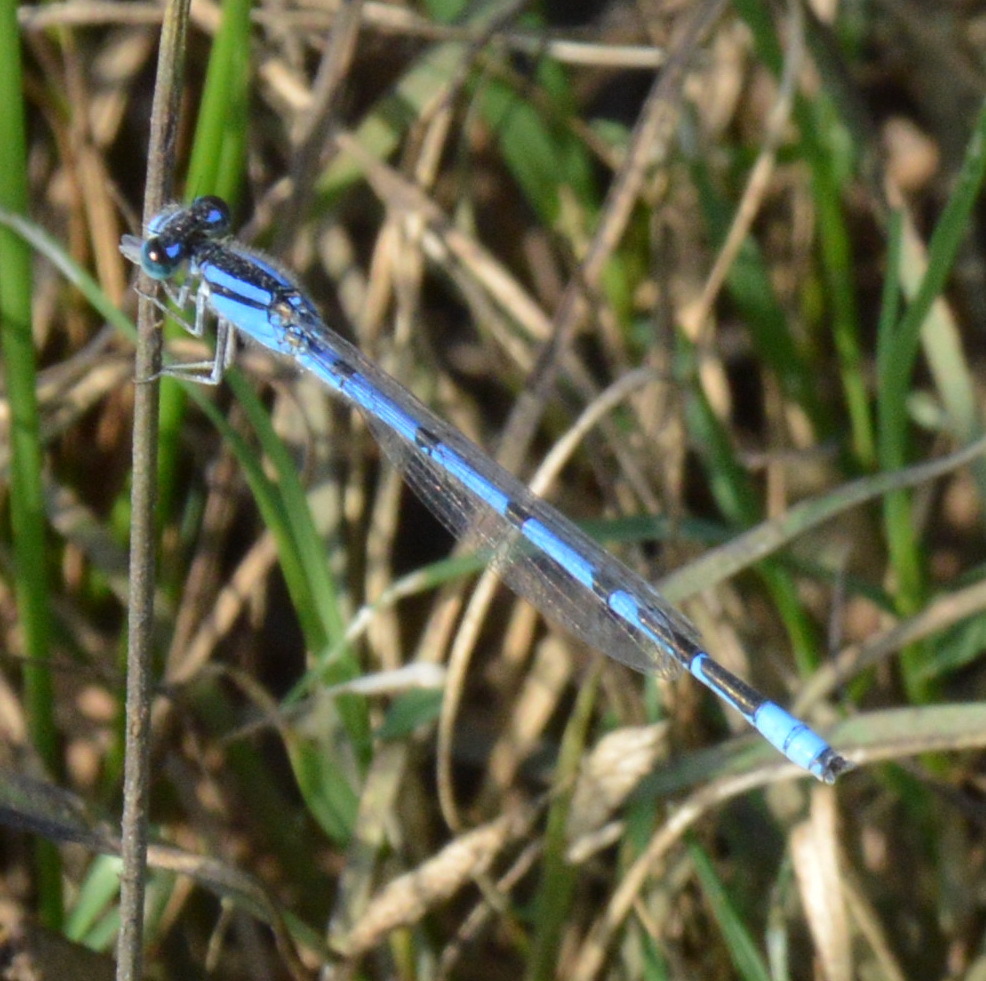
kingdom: Animalia
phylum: Arthropoda
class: Insecta
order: Odonata
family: Coenagrionidae
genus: Enallagma
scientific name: Enallagma civile
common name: Damselfly
